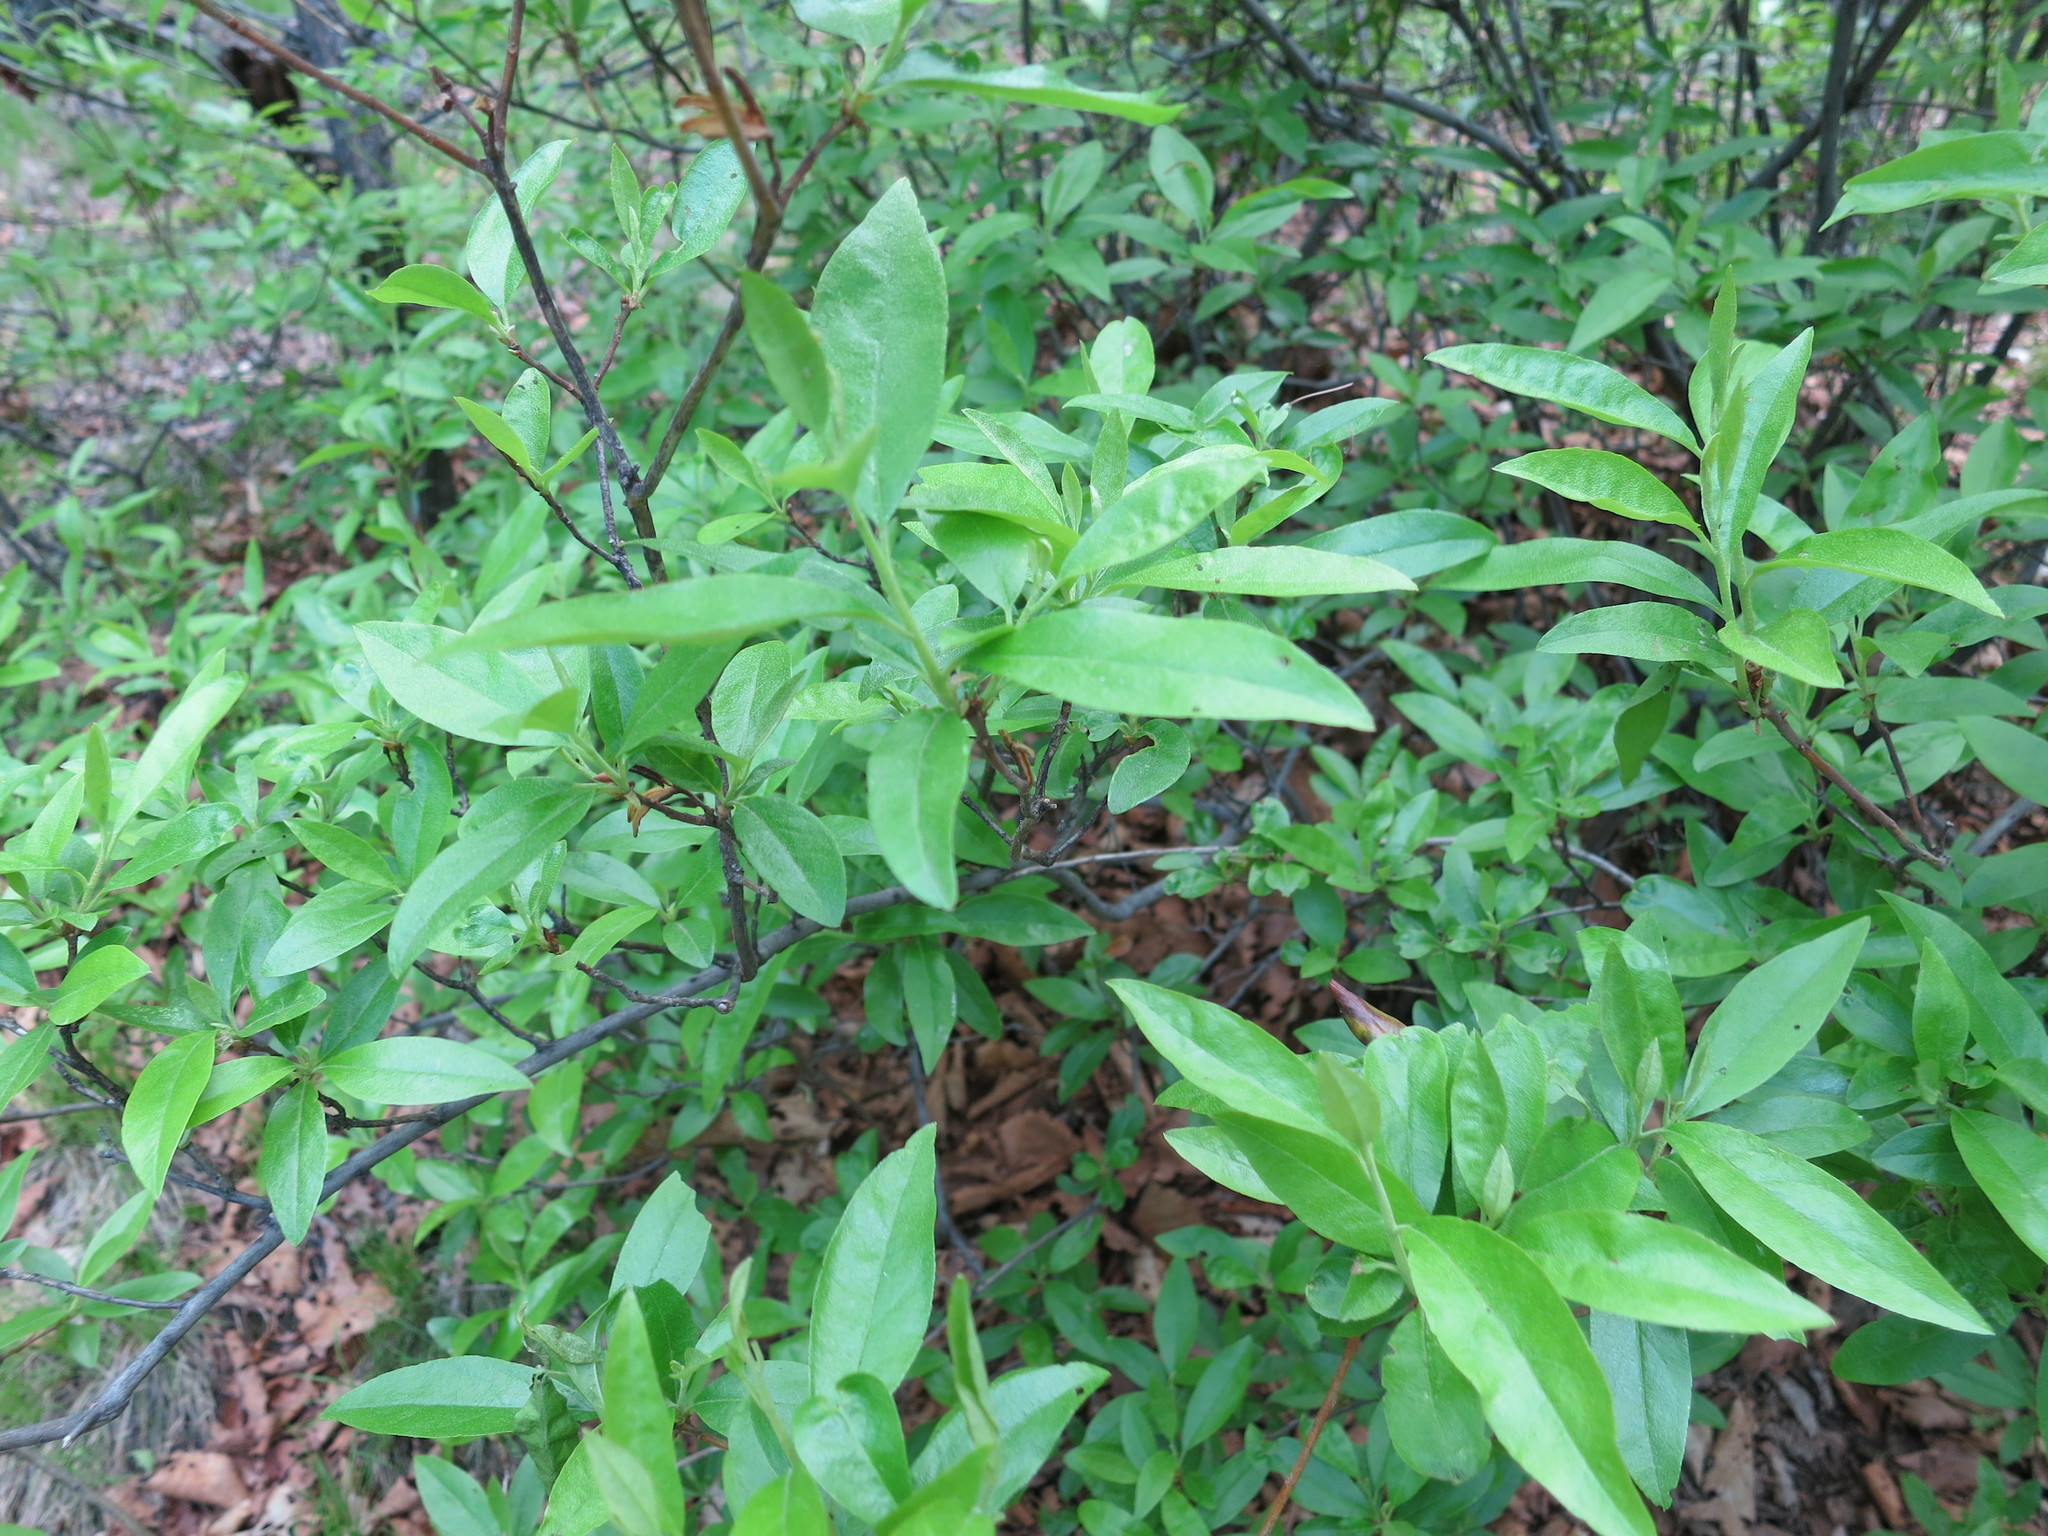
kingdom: Plantae
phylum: Tracheophyta
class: Magnoliopsida
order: Ericales
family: Ericaceae
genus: Rhododendron
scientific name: Rhododendron mucronulatum
